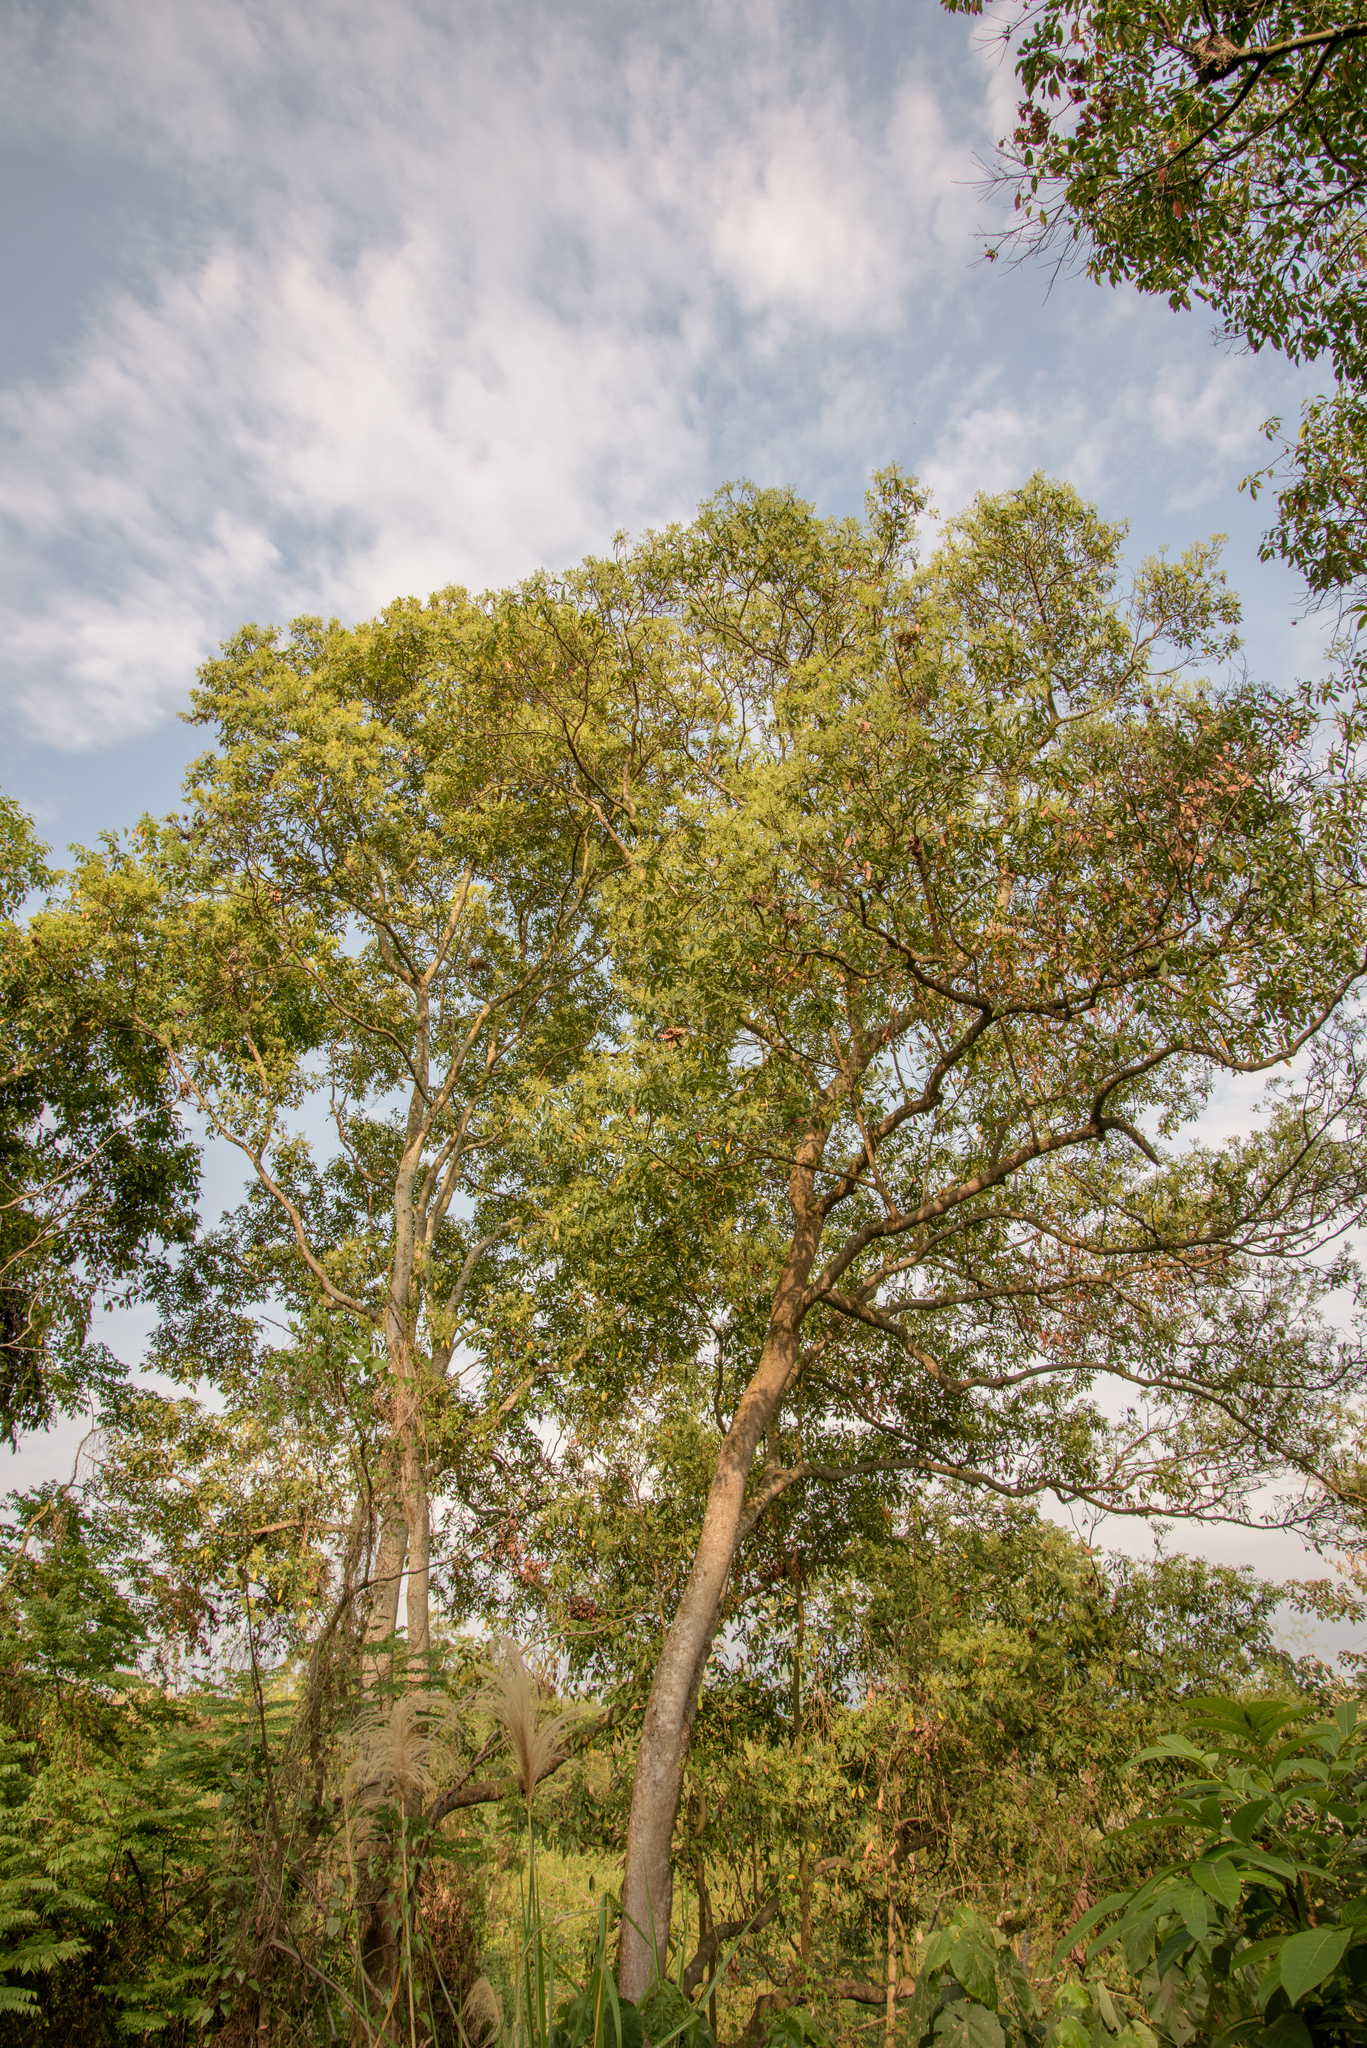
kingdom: Plantae
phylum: Tracheophyta
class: Magnoliopsida
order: Laurales
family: Lauraceae
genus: Machilus
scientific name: Machilus zuihoensis
